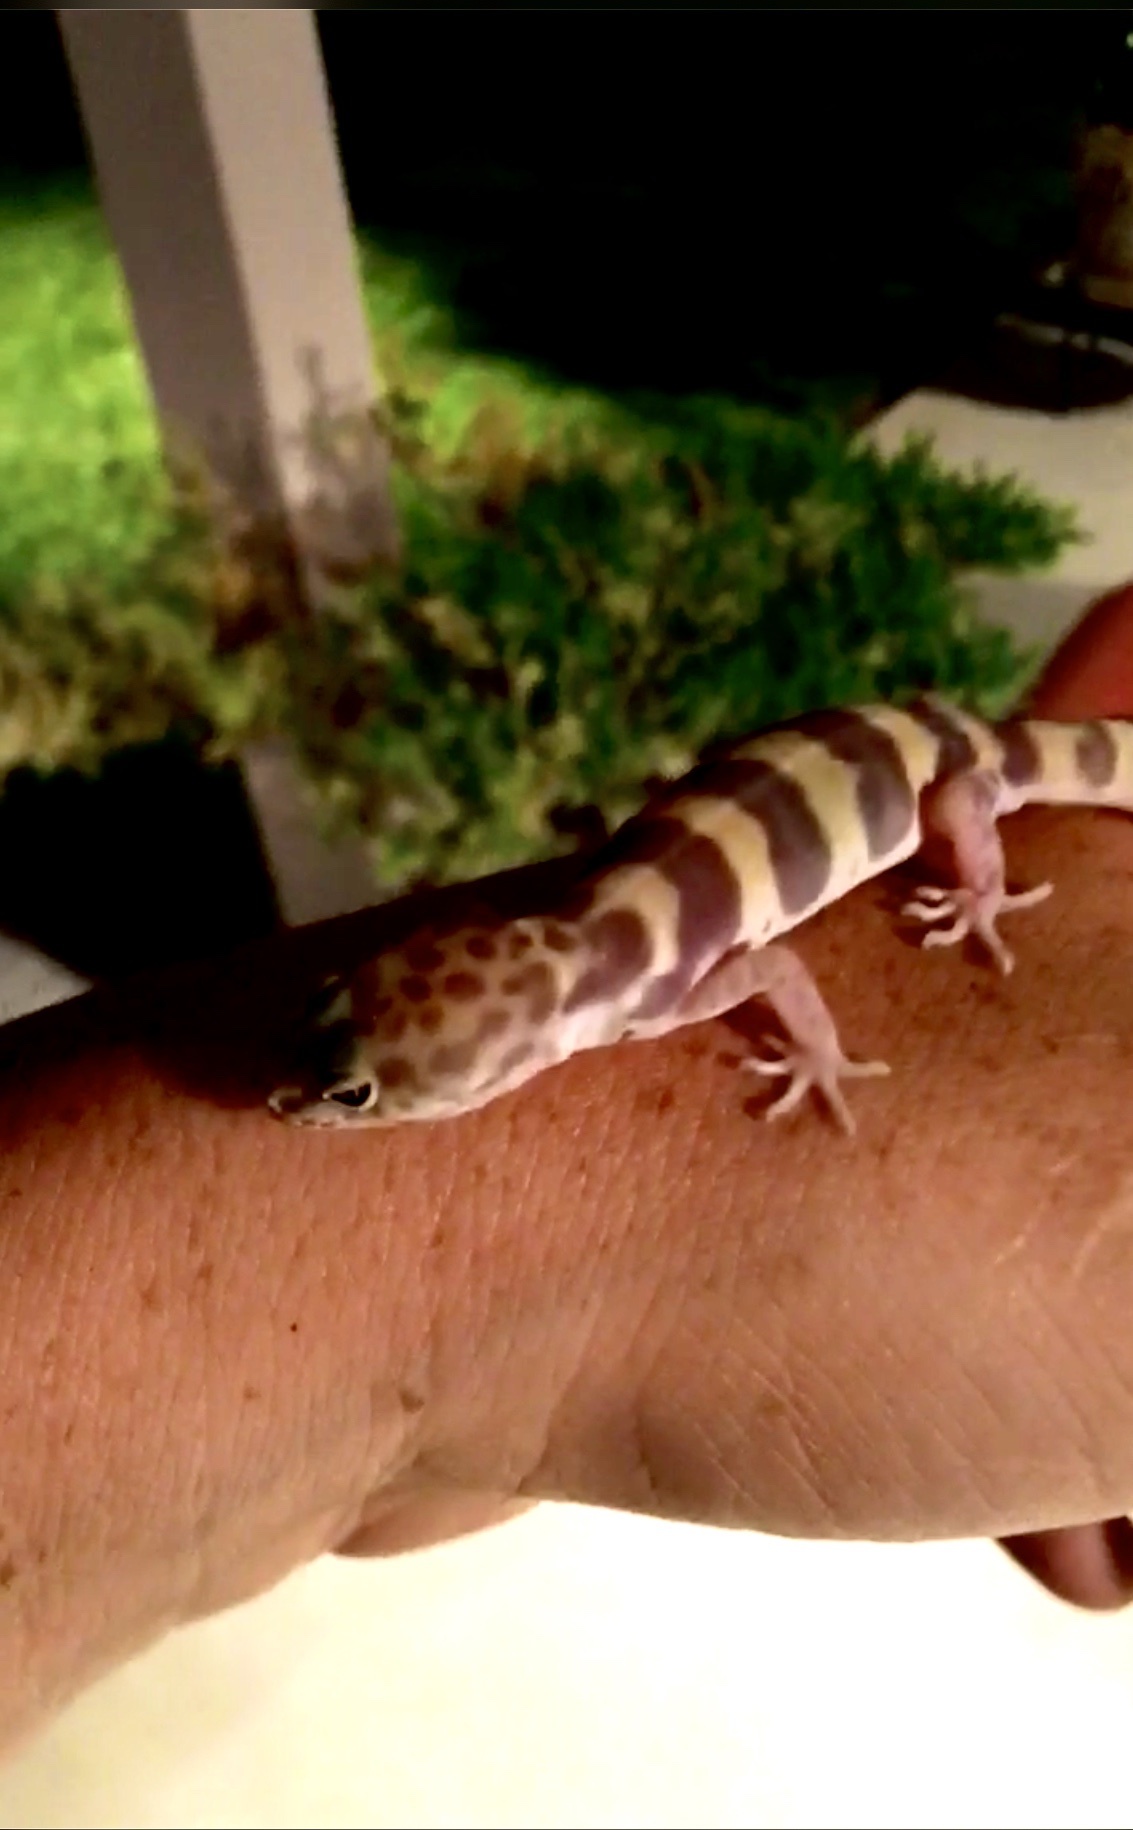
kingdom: Animalia
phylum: Chordata
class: Squamata
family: Eublepharidae
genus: Coleonyx
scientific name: Coleonyx variegatus
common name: Western banded gecko
